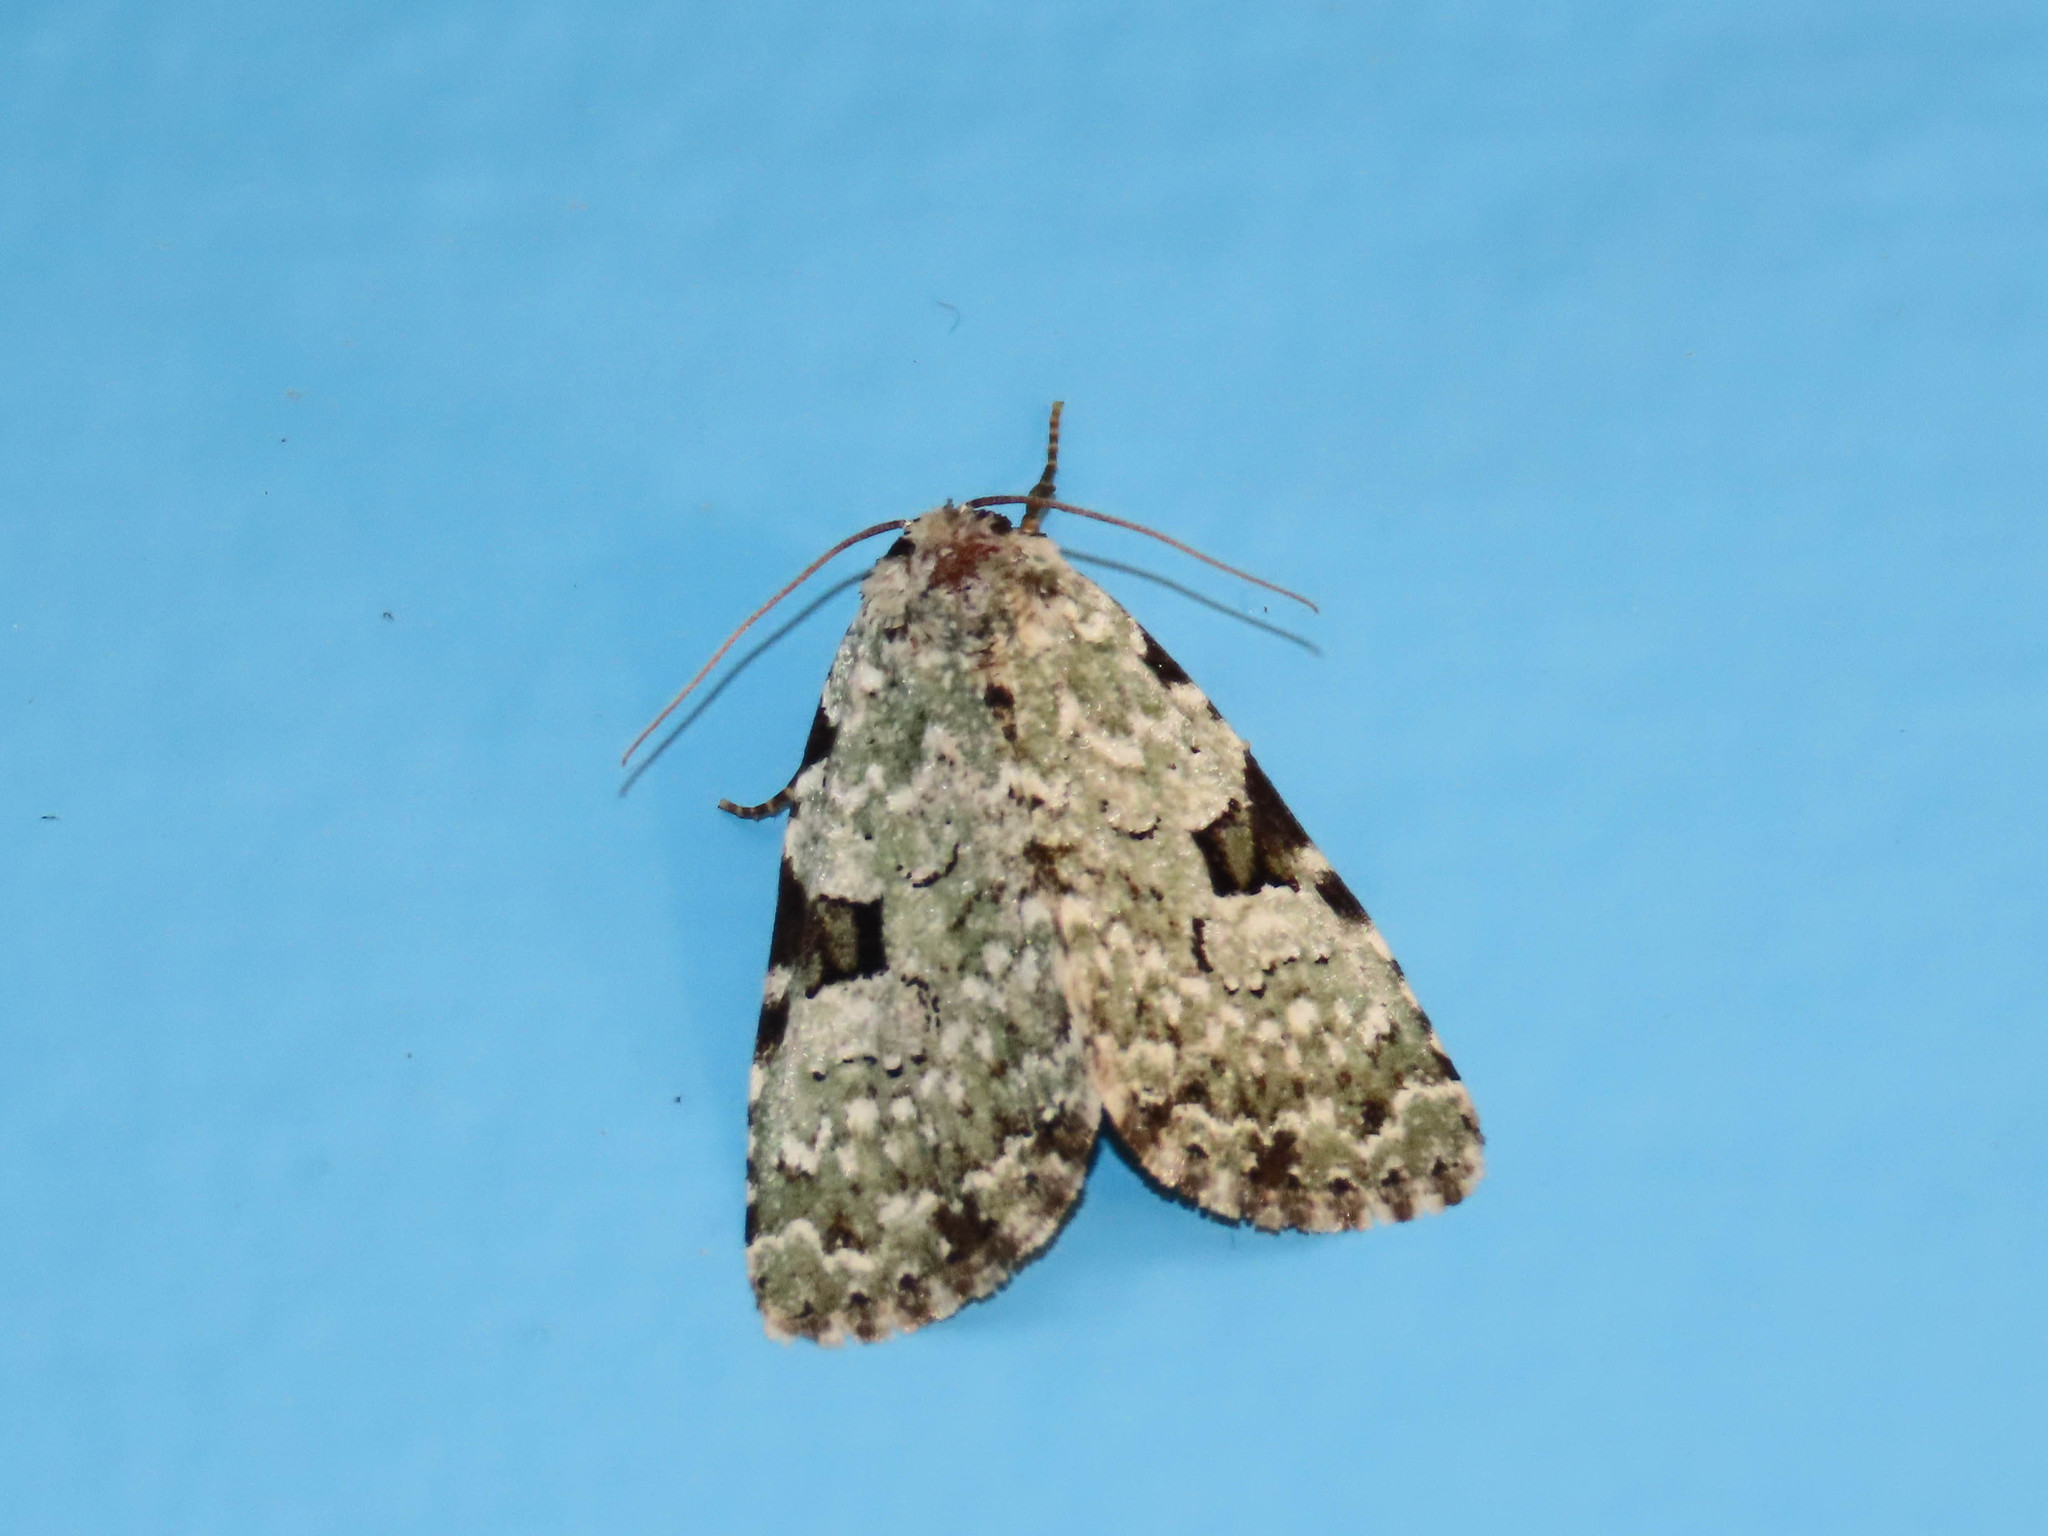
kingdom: Animalia
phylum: Arthropoda
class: Insecta
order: Lepidoptera
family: Noctuidae
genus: Leuconycta
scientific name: Leuconycta diphteroides
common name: Green leuconycta moth
